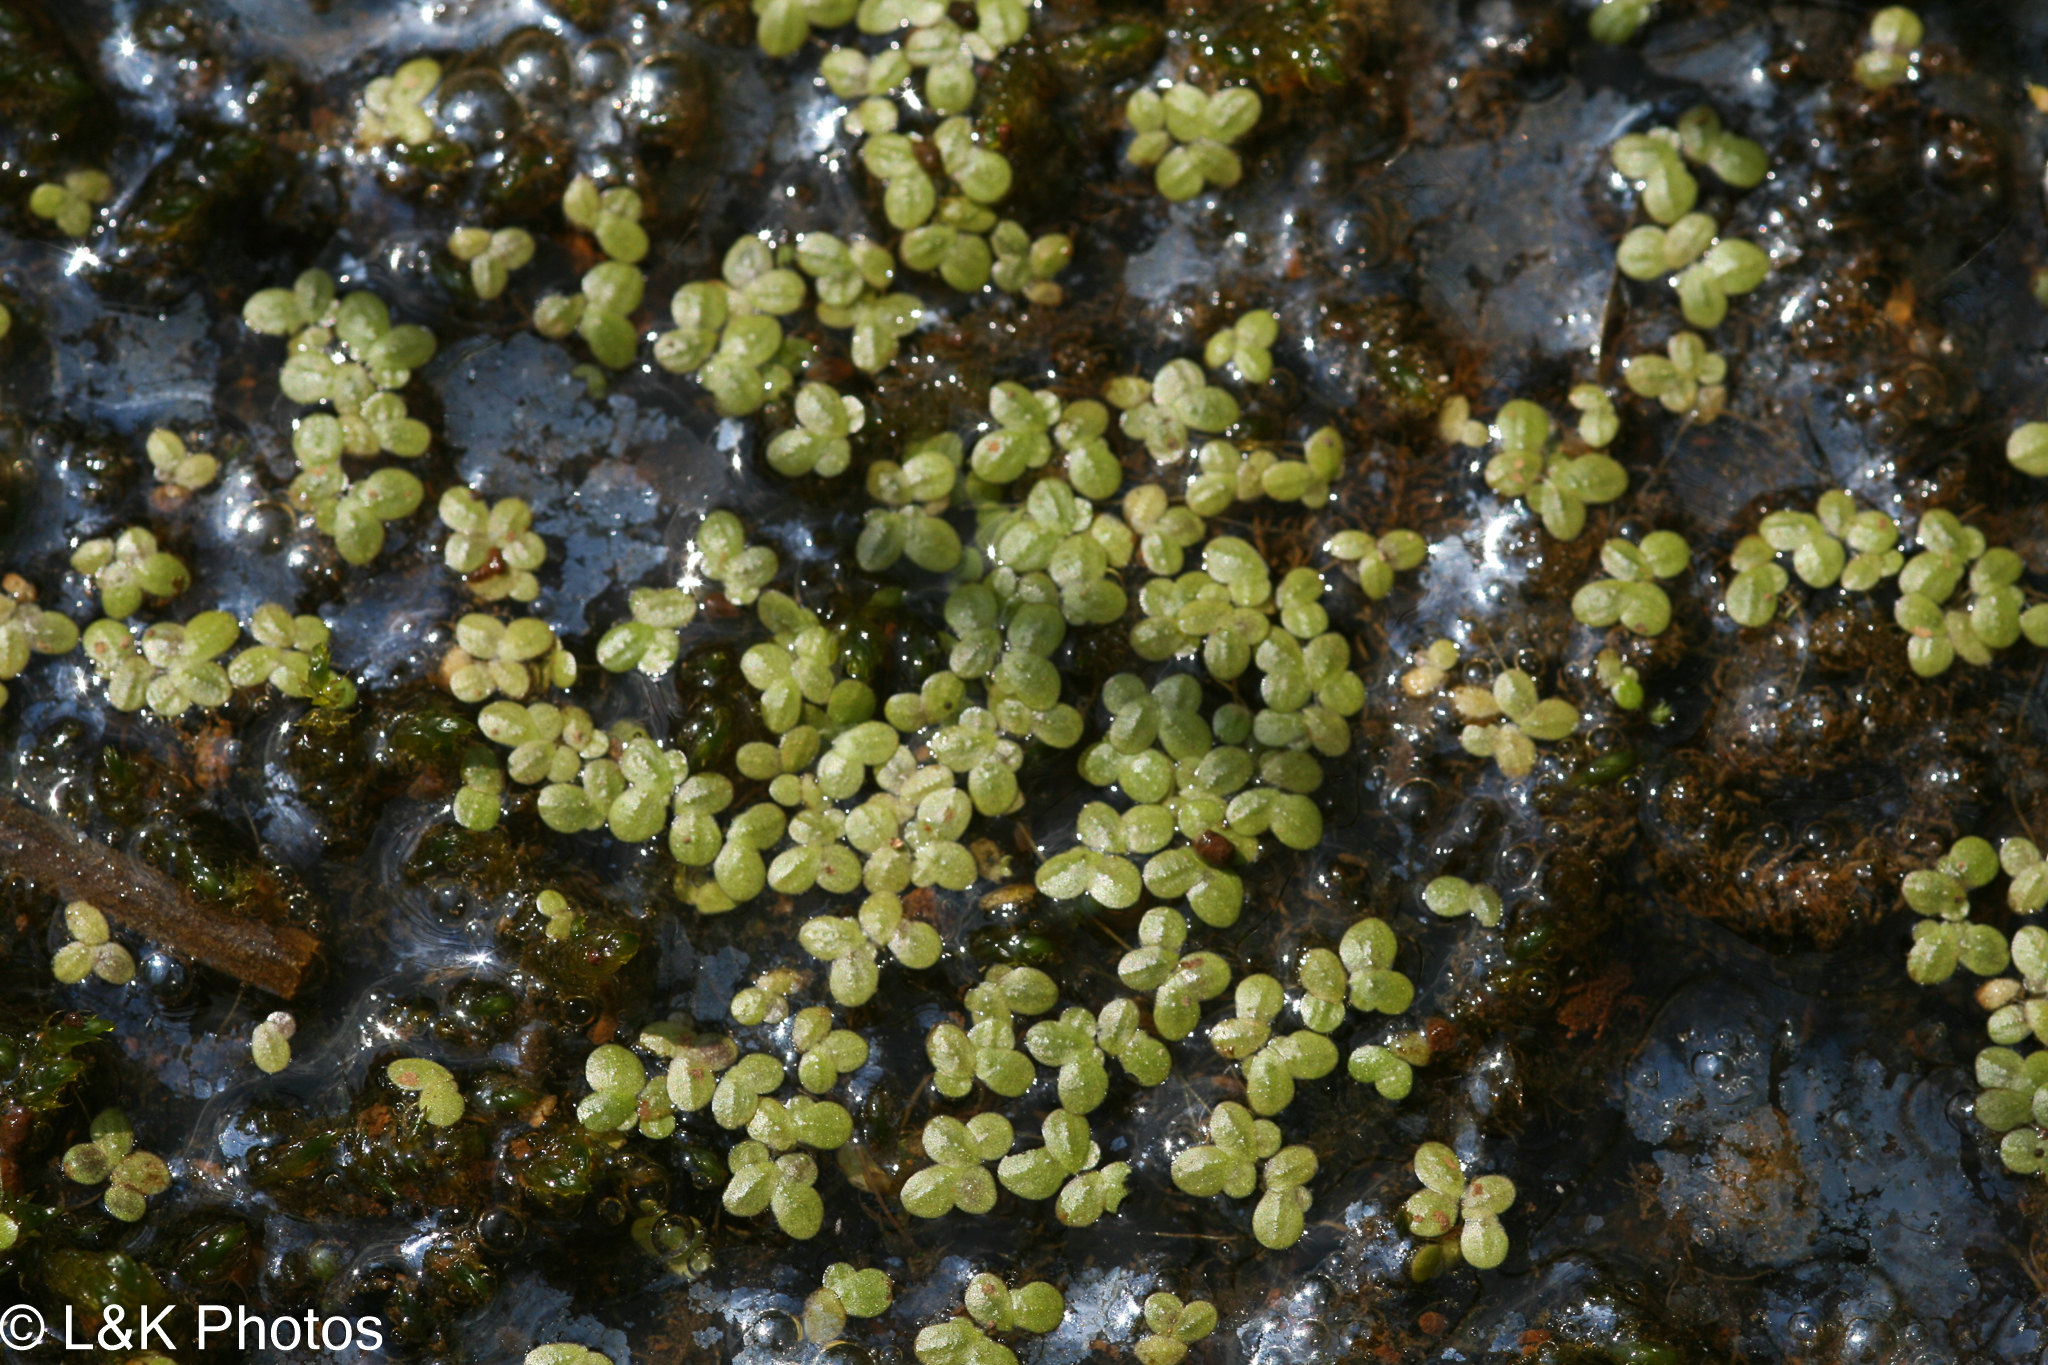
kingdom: Plantae
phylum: Tracheophyta
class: Liliopsida
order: Alismatales
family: Araceae
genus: Lemna
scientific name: Lemna turionifera
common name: Perennial duckweed
